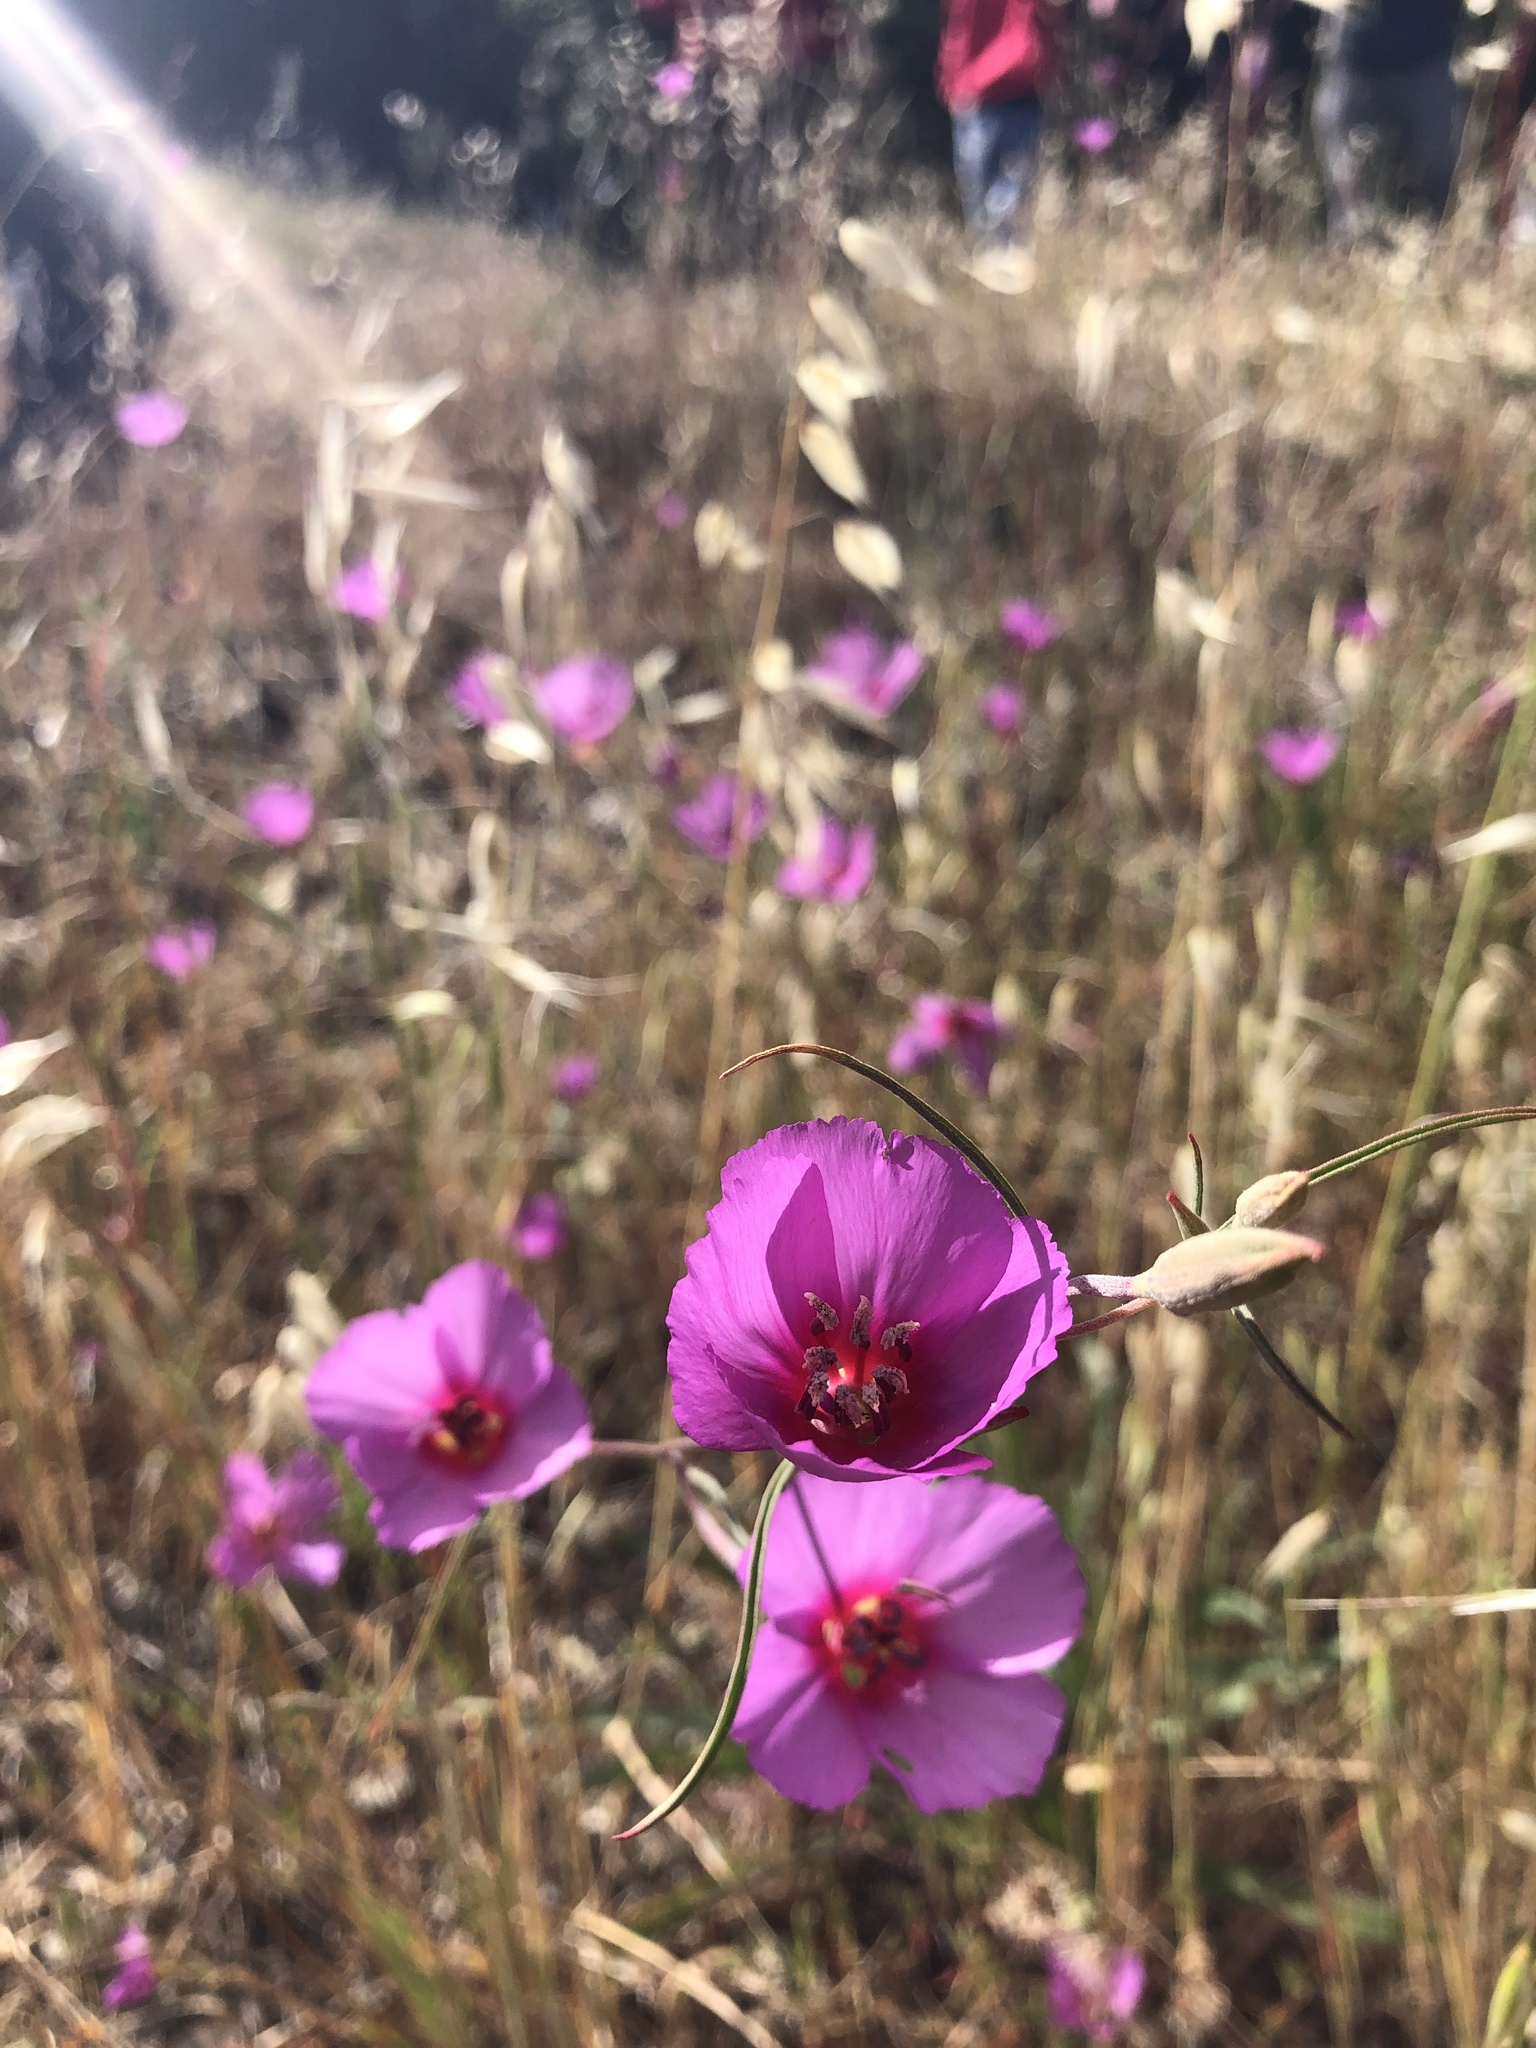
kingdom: Plantae
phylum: Tracheophyta
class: Magnoliopsida
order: Myrtales
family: Onagraceae
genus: Clarkia
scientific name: Clarkia rubicunda
